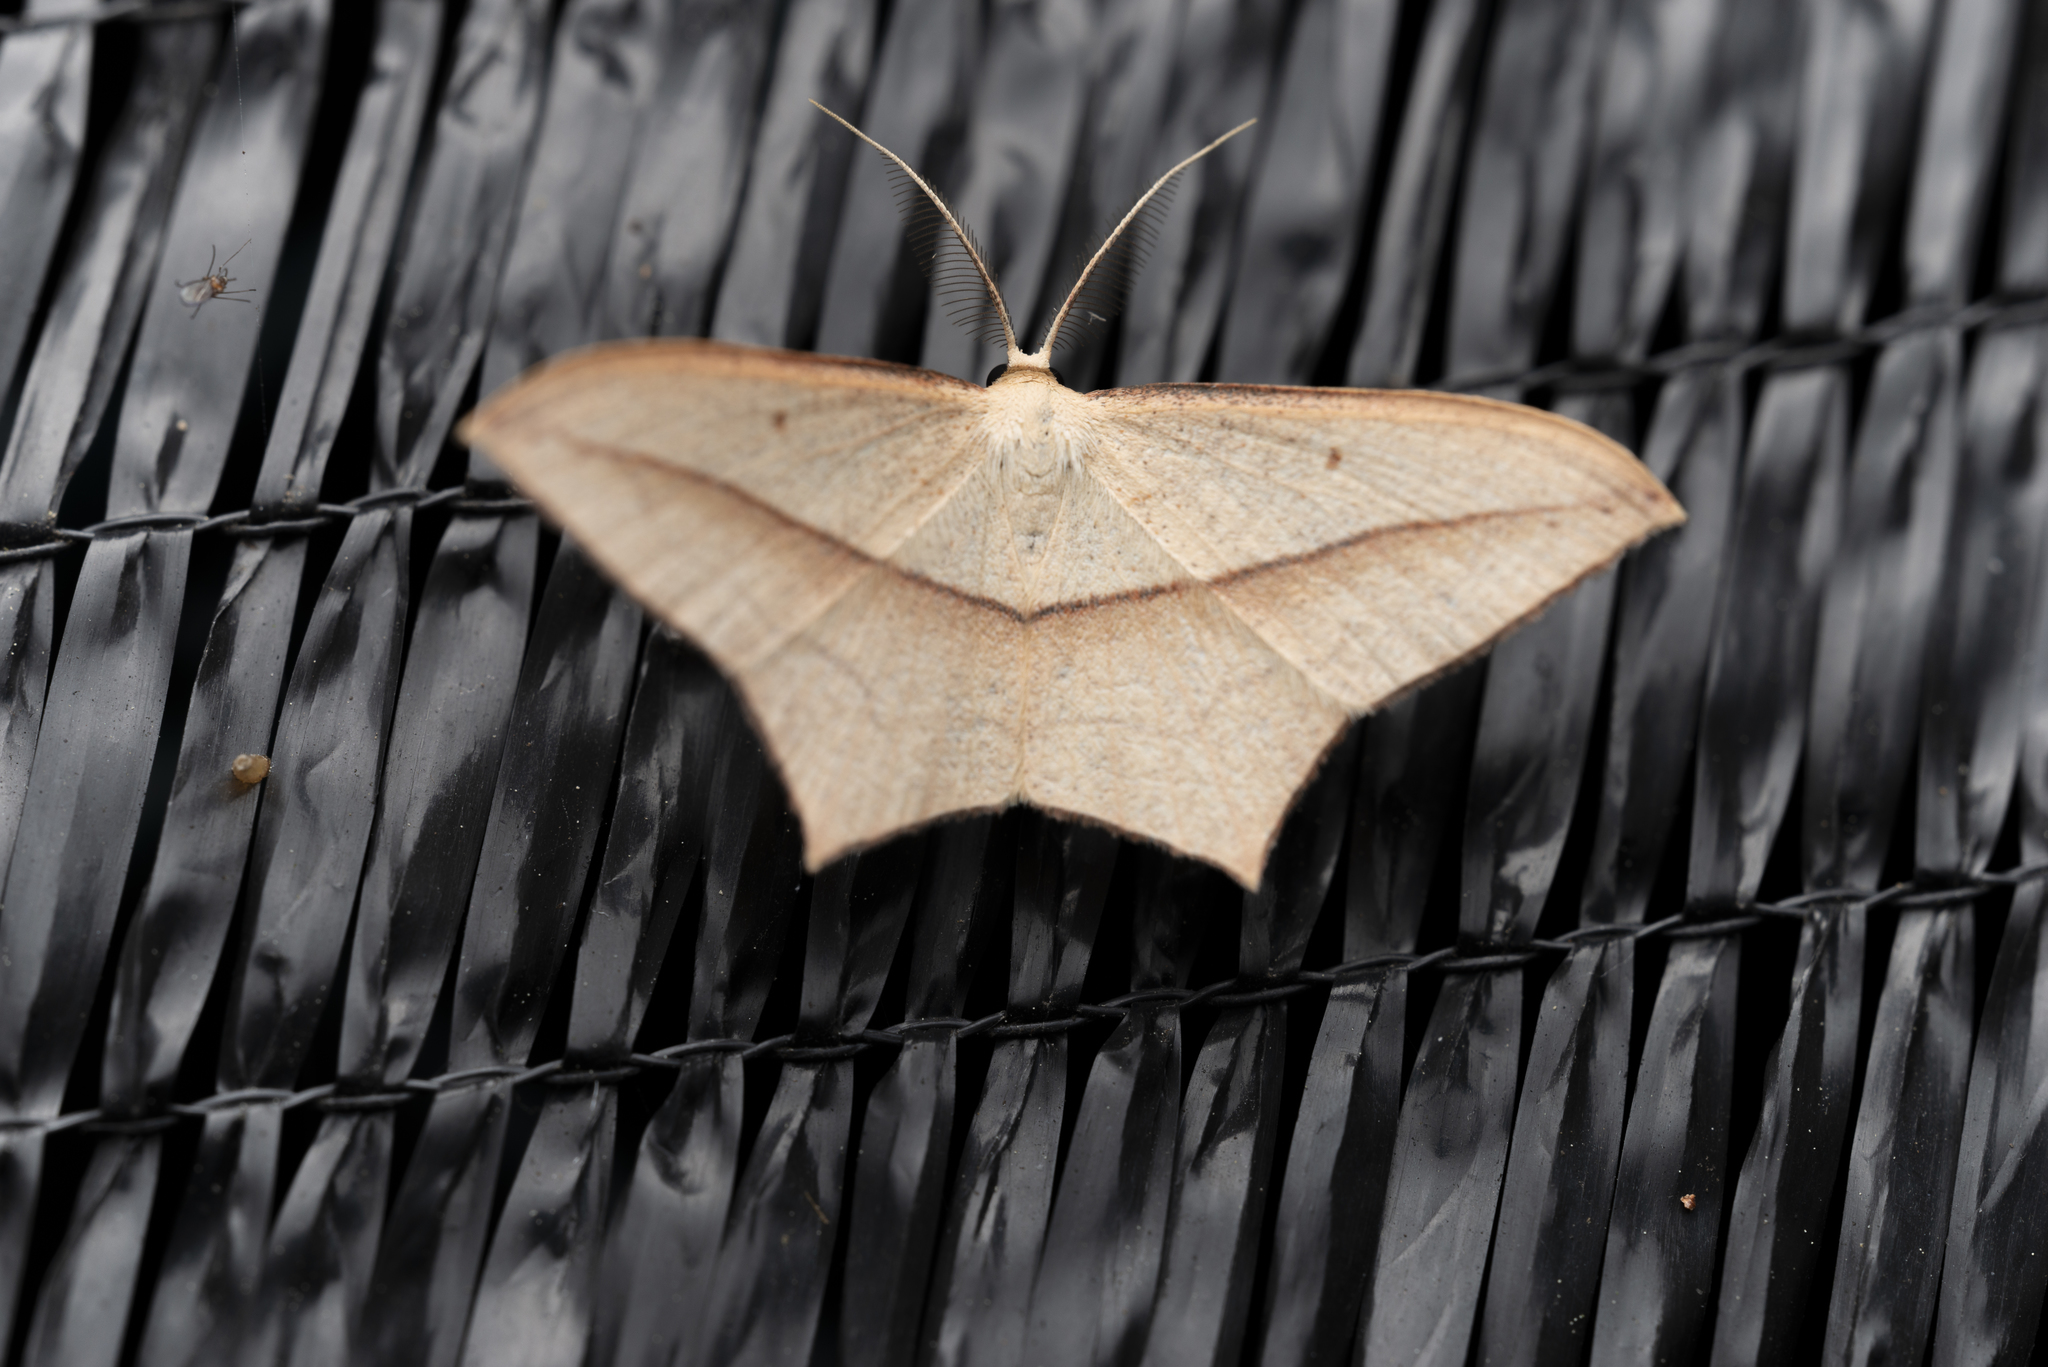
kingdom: Animalia
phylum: Arthropoda
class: Insecta
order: Lepidoptera
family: Geometridae
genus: Timandra
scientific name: Timandra convectaria
